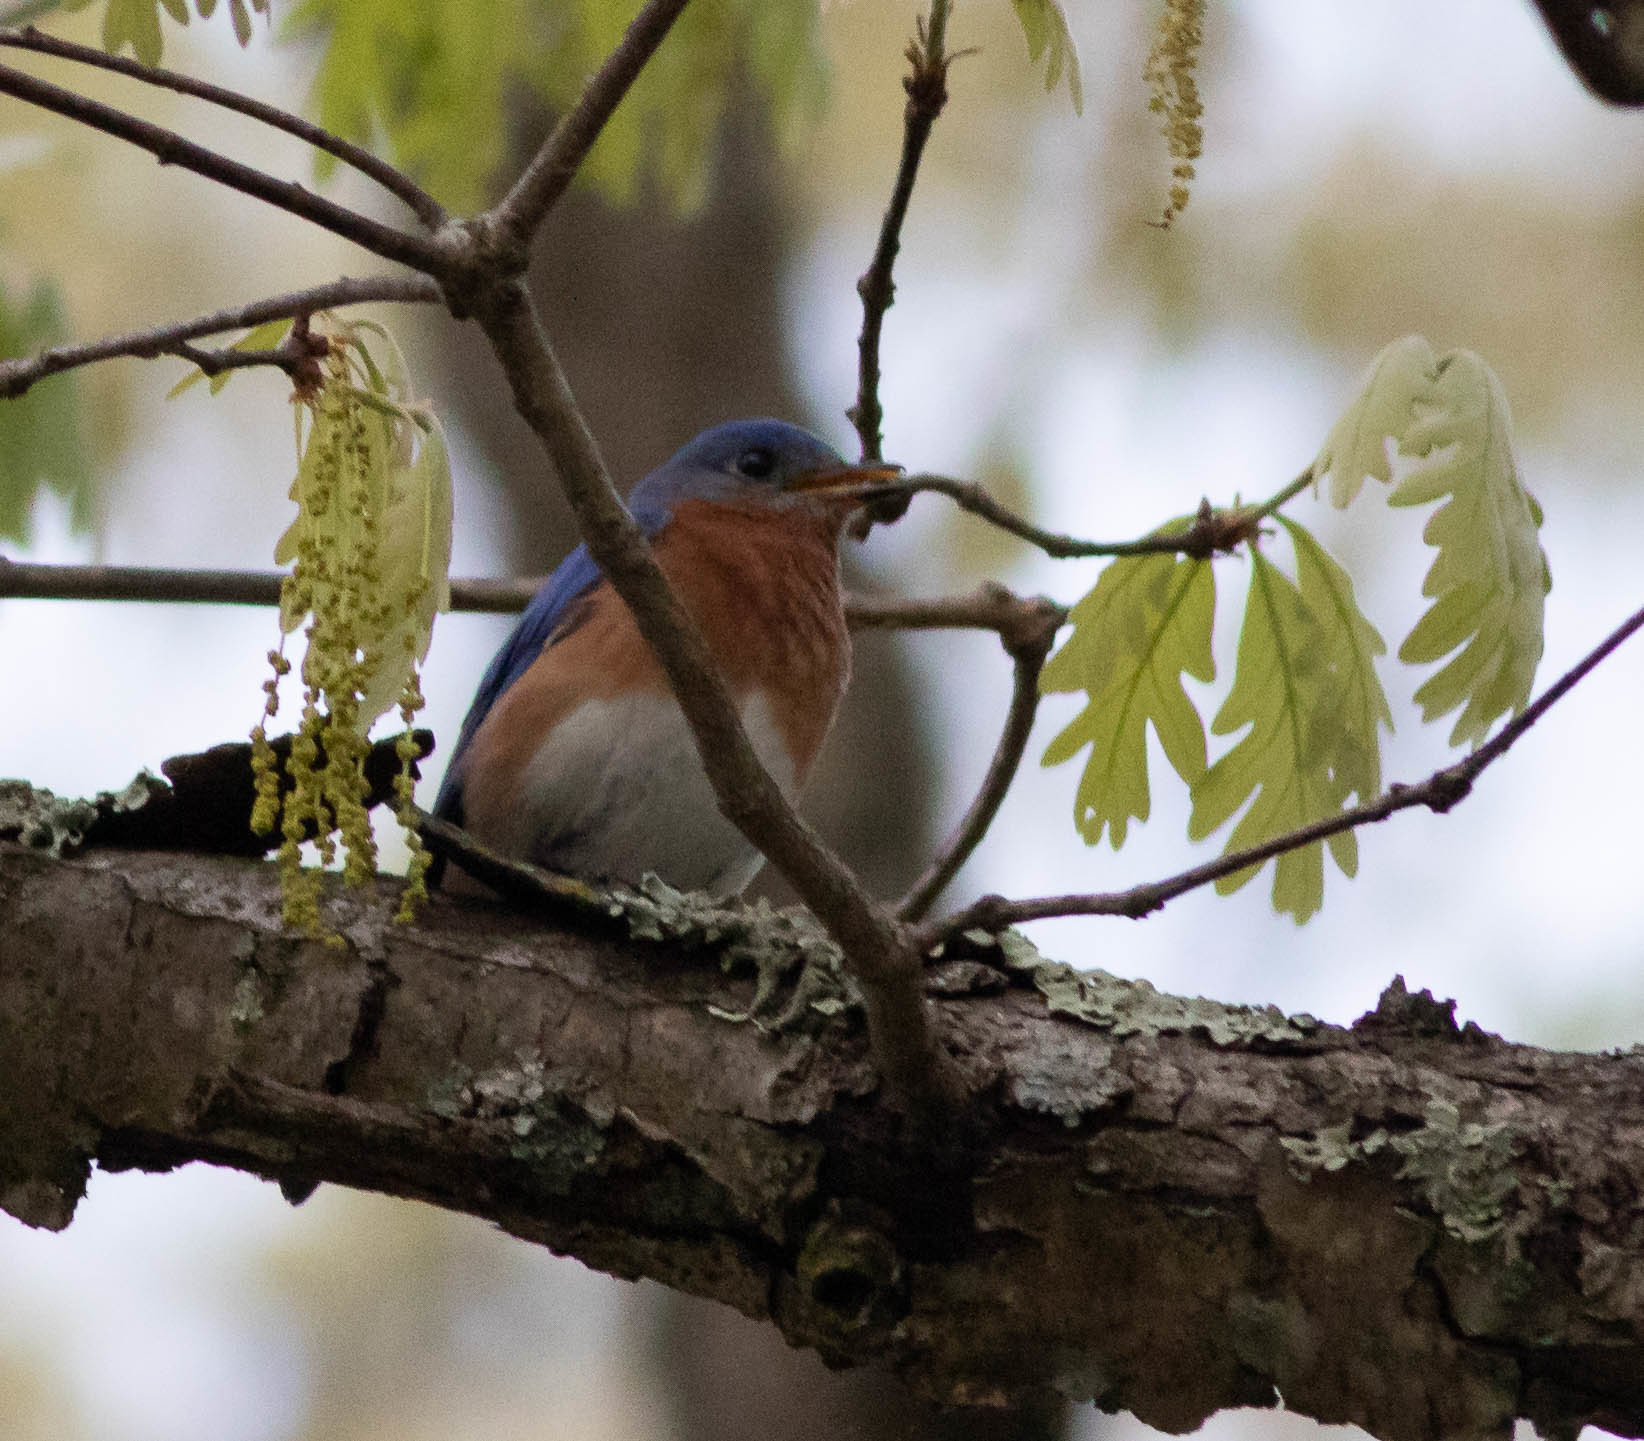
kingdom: Animalia
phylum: Chordata
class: Aves
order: Passeriformes
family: Turdidae
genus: Sialia
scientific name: Sialia sialis
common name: Eastern bluebird
